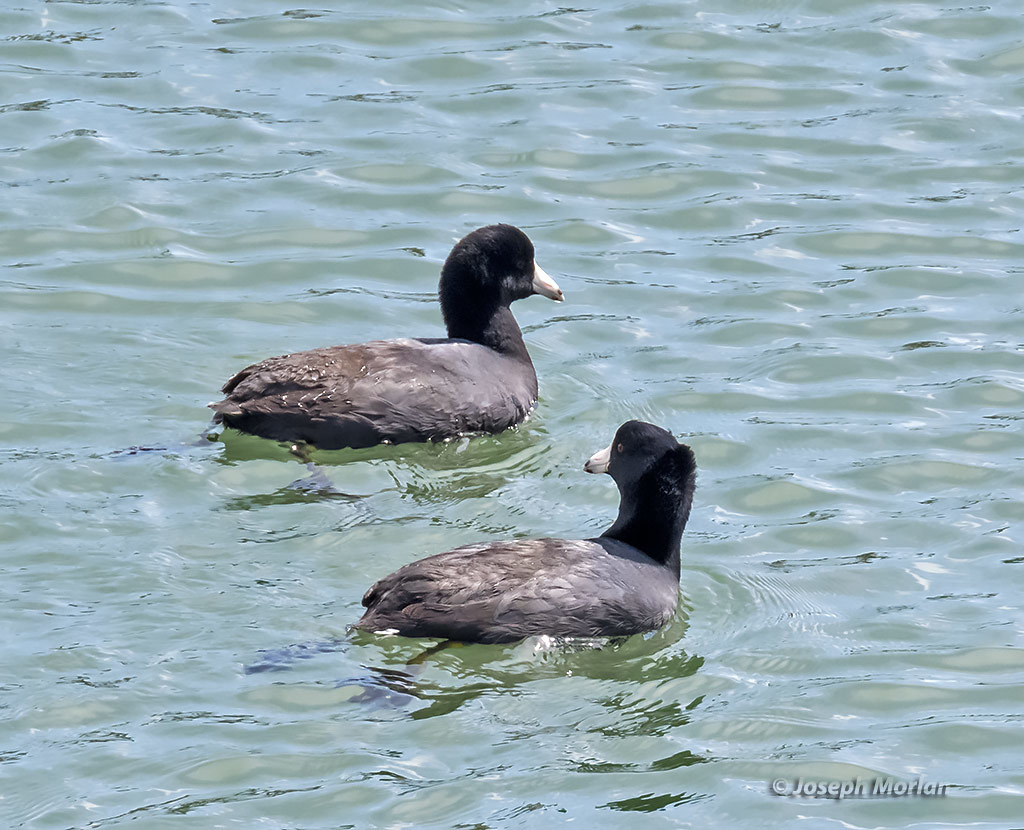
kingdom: Animalia
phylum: Chordata
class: Aves
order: Gruiformes
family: Rallidae
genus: Fulica
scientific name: Fulica americana
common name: American coot
